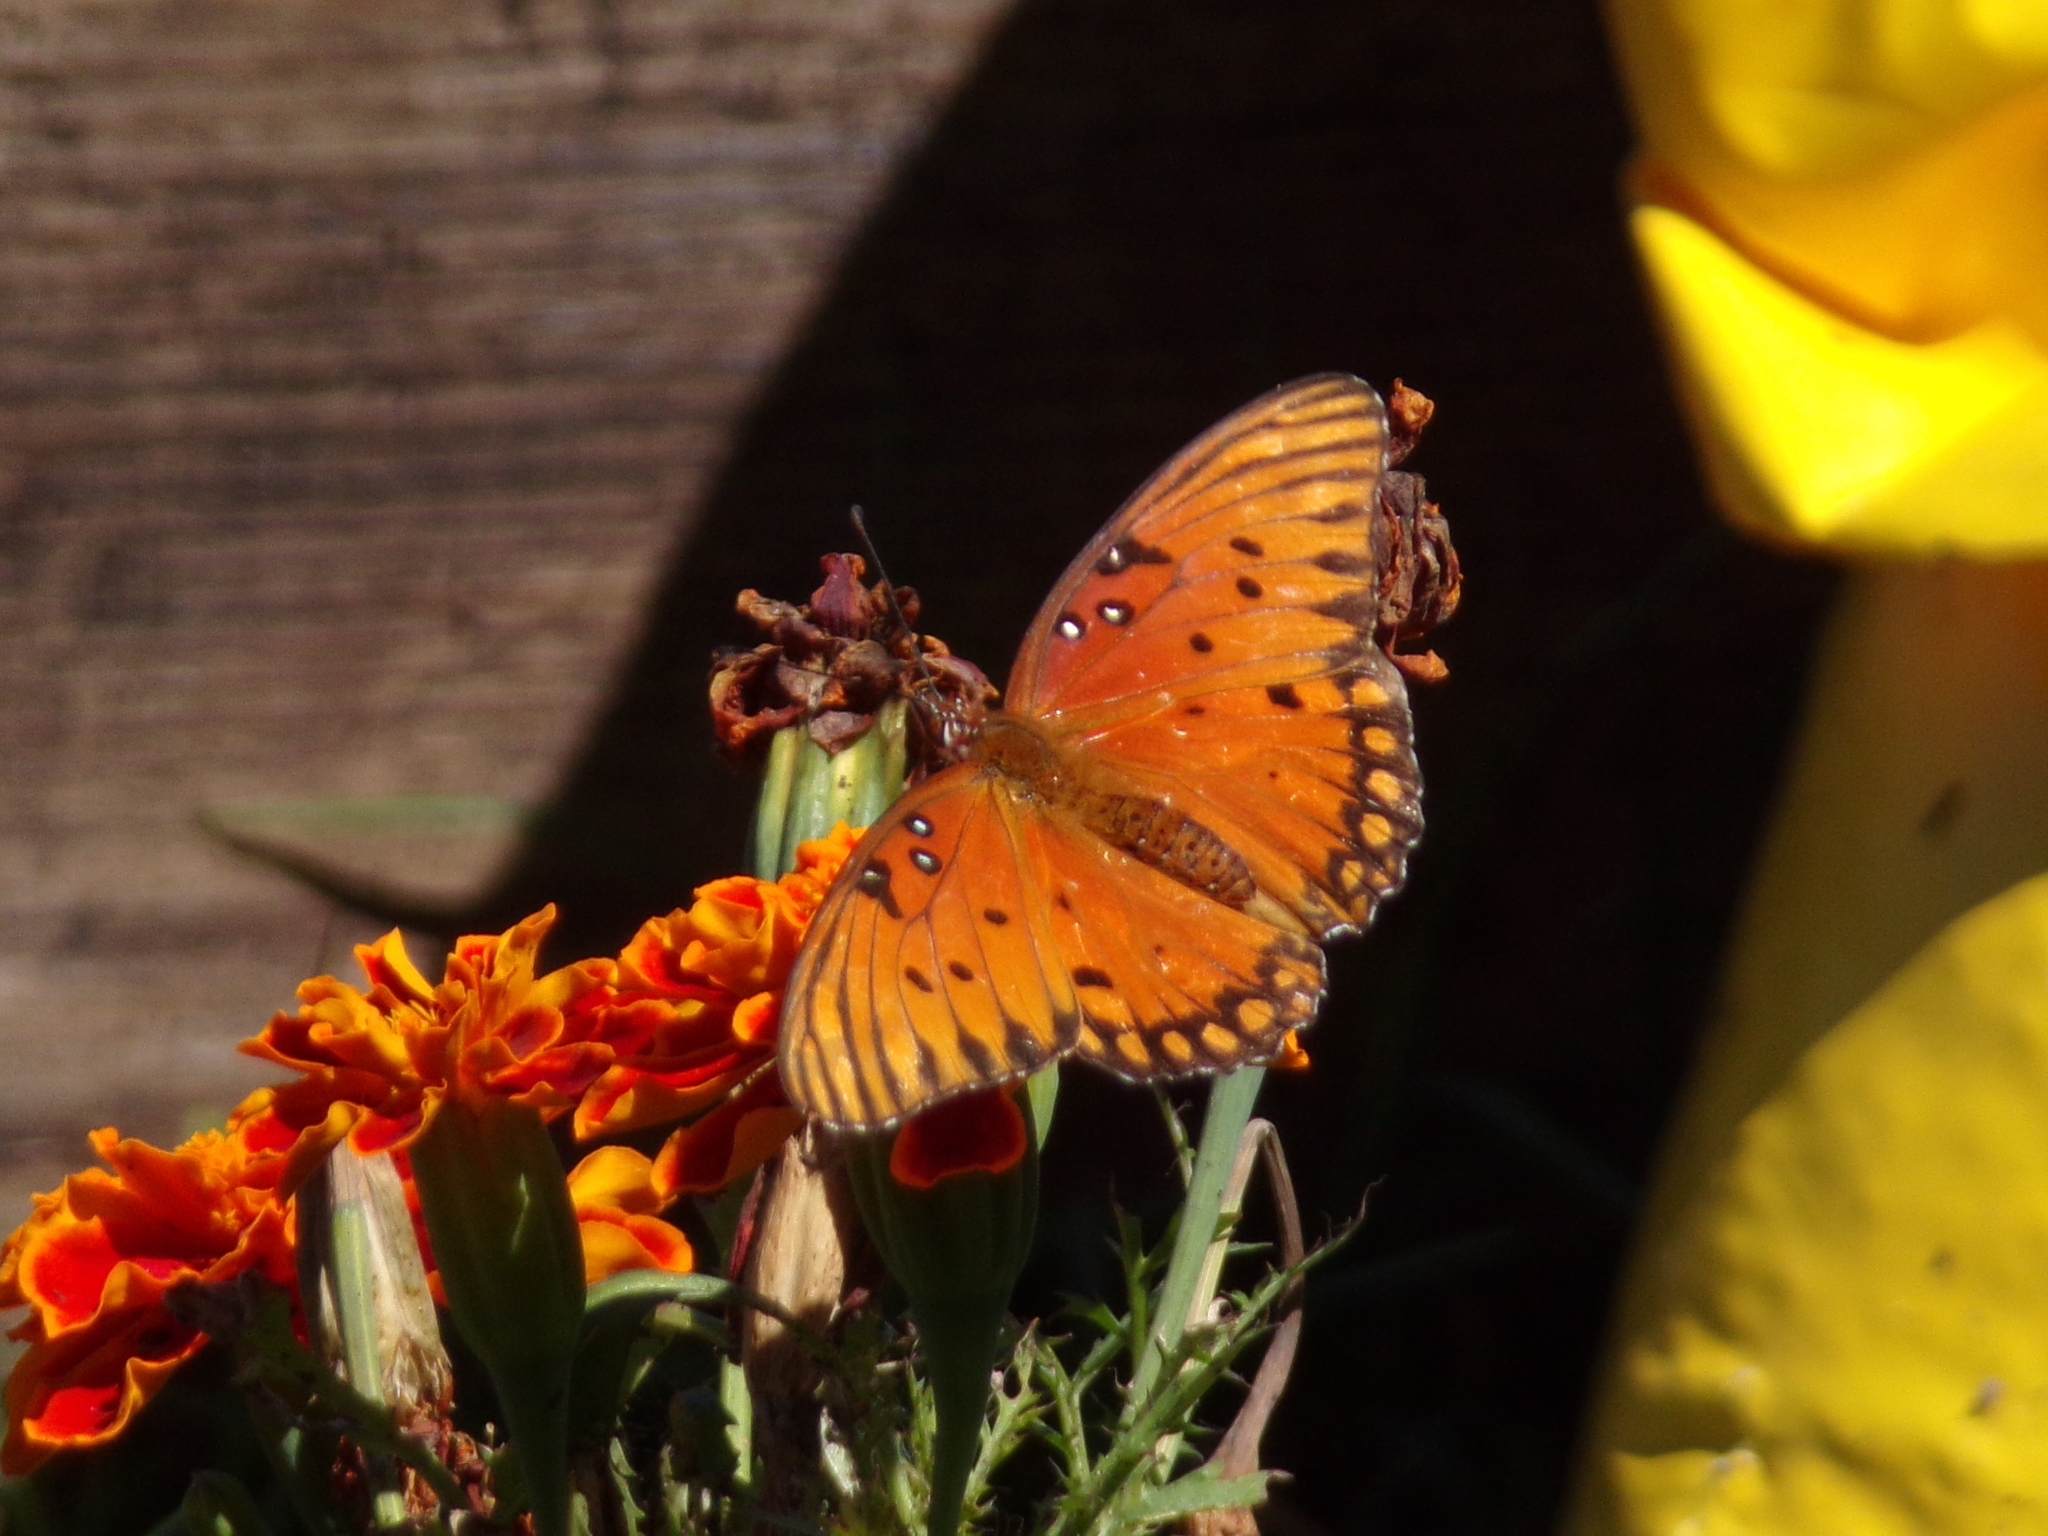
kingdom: Animalia
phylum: Arthropoda
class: Insecta
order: Lepidoptera
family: Nymphalidae
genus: Dione
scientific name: Dione vanillae
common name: Gulf fritillary
